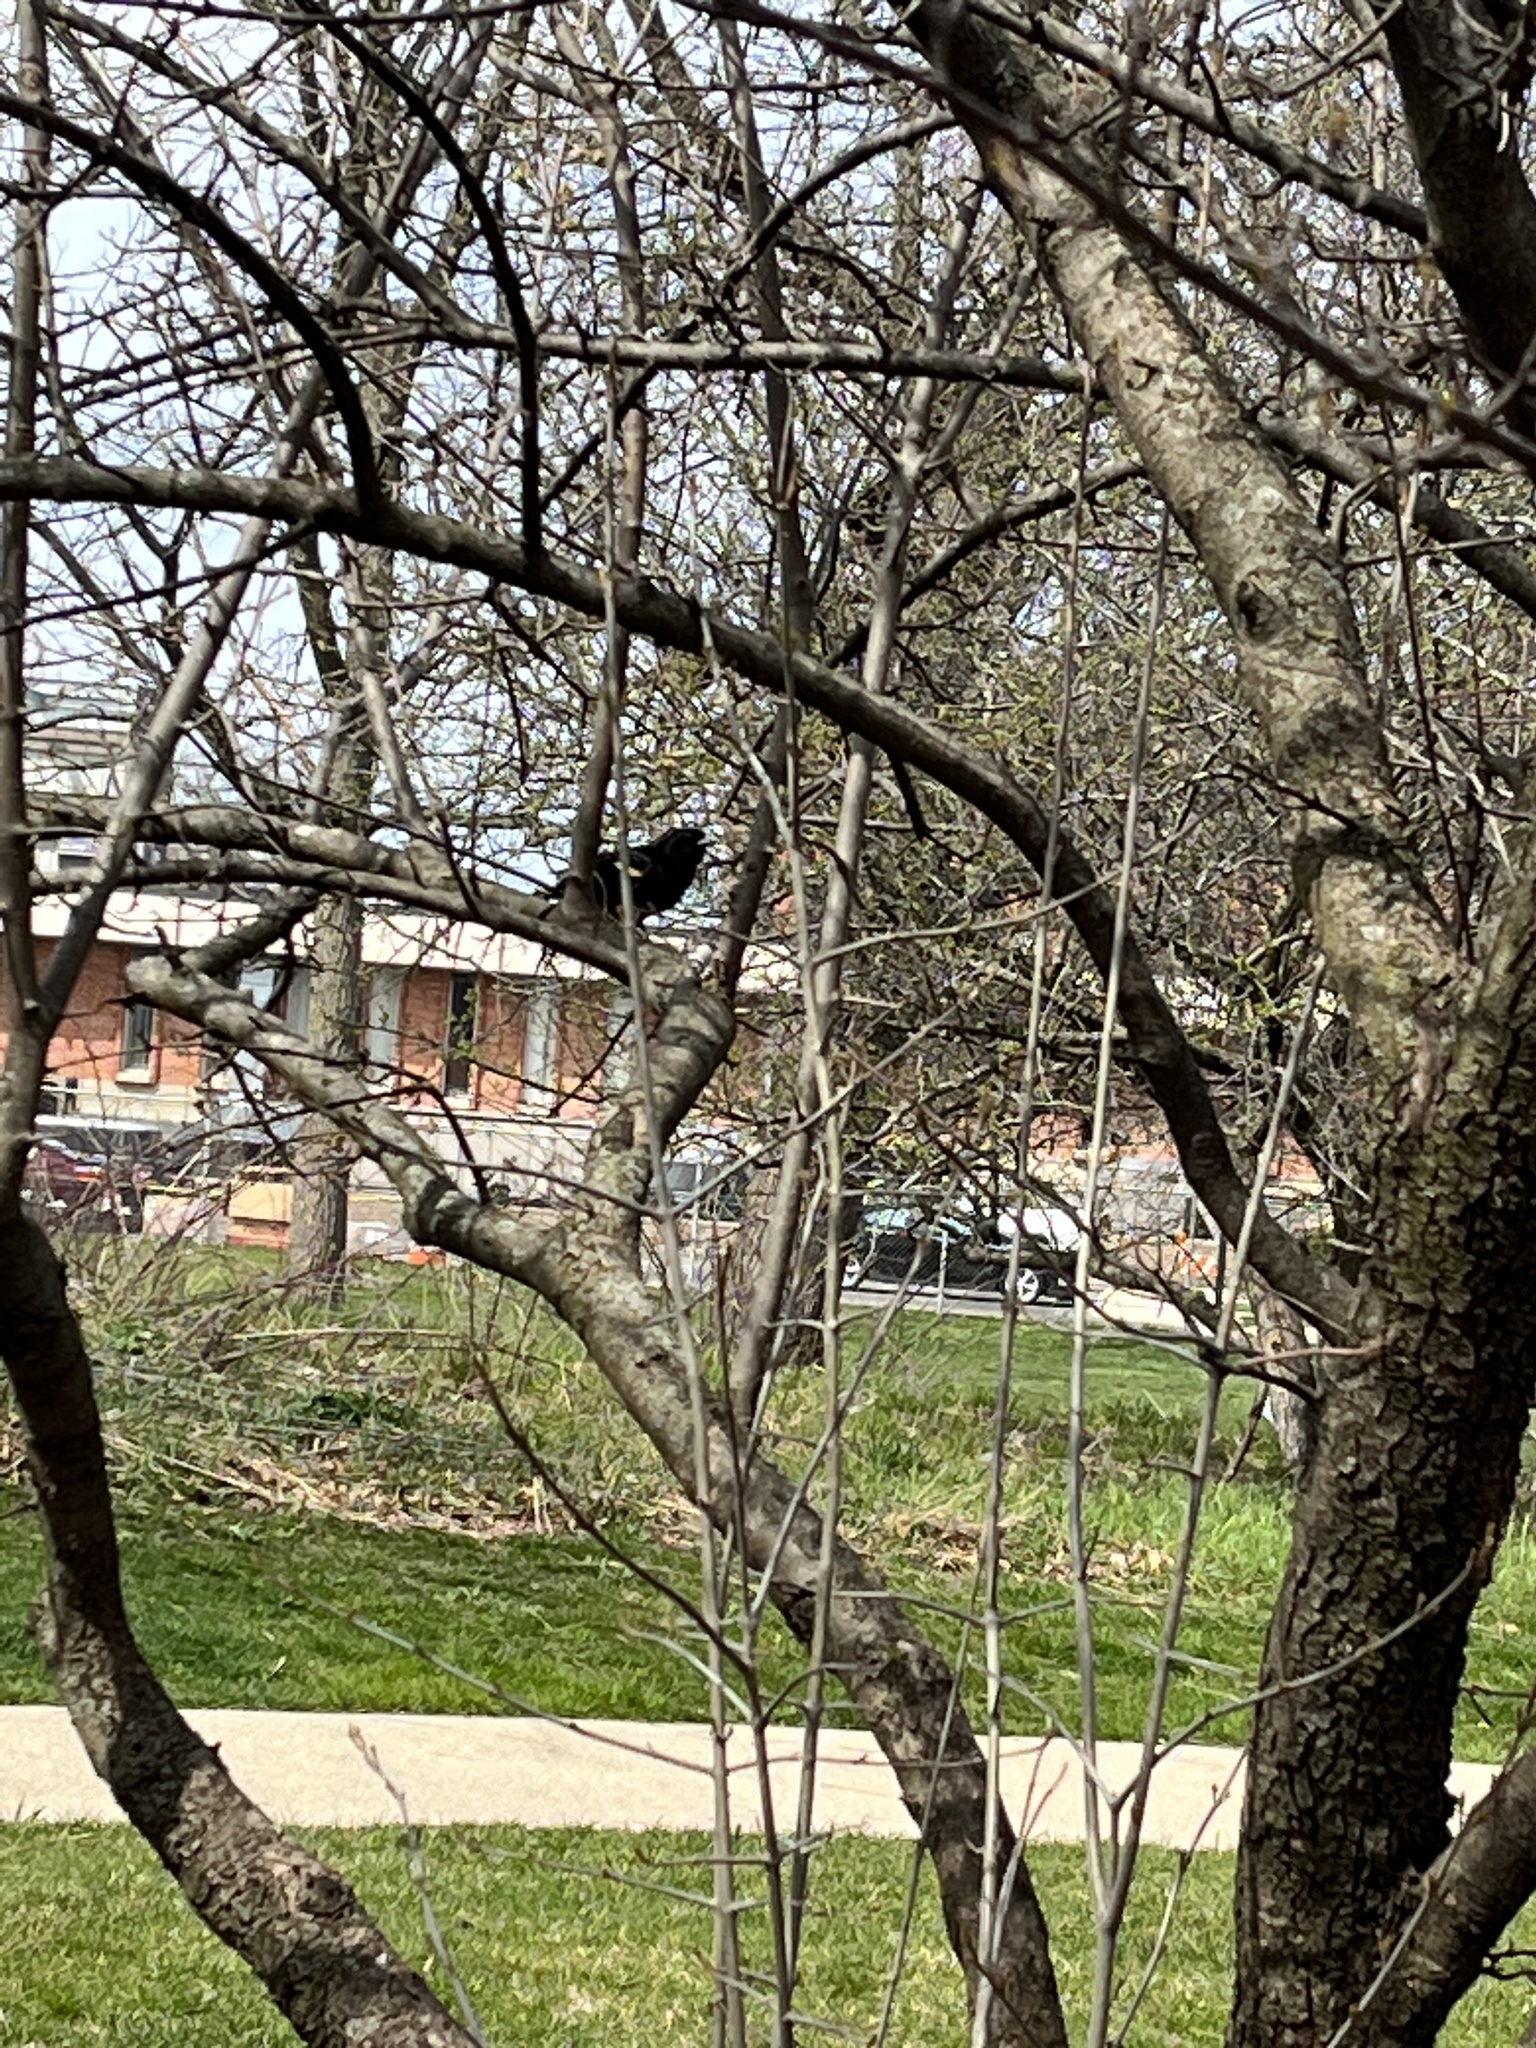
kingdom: Animalia
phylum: Chordata
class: Aves
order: Passeriformes
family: Icteridae
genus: Agelaius
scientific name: Agelaius phoeniceus
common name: Red-winged blackbird
